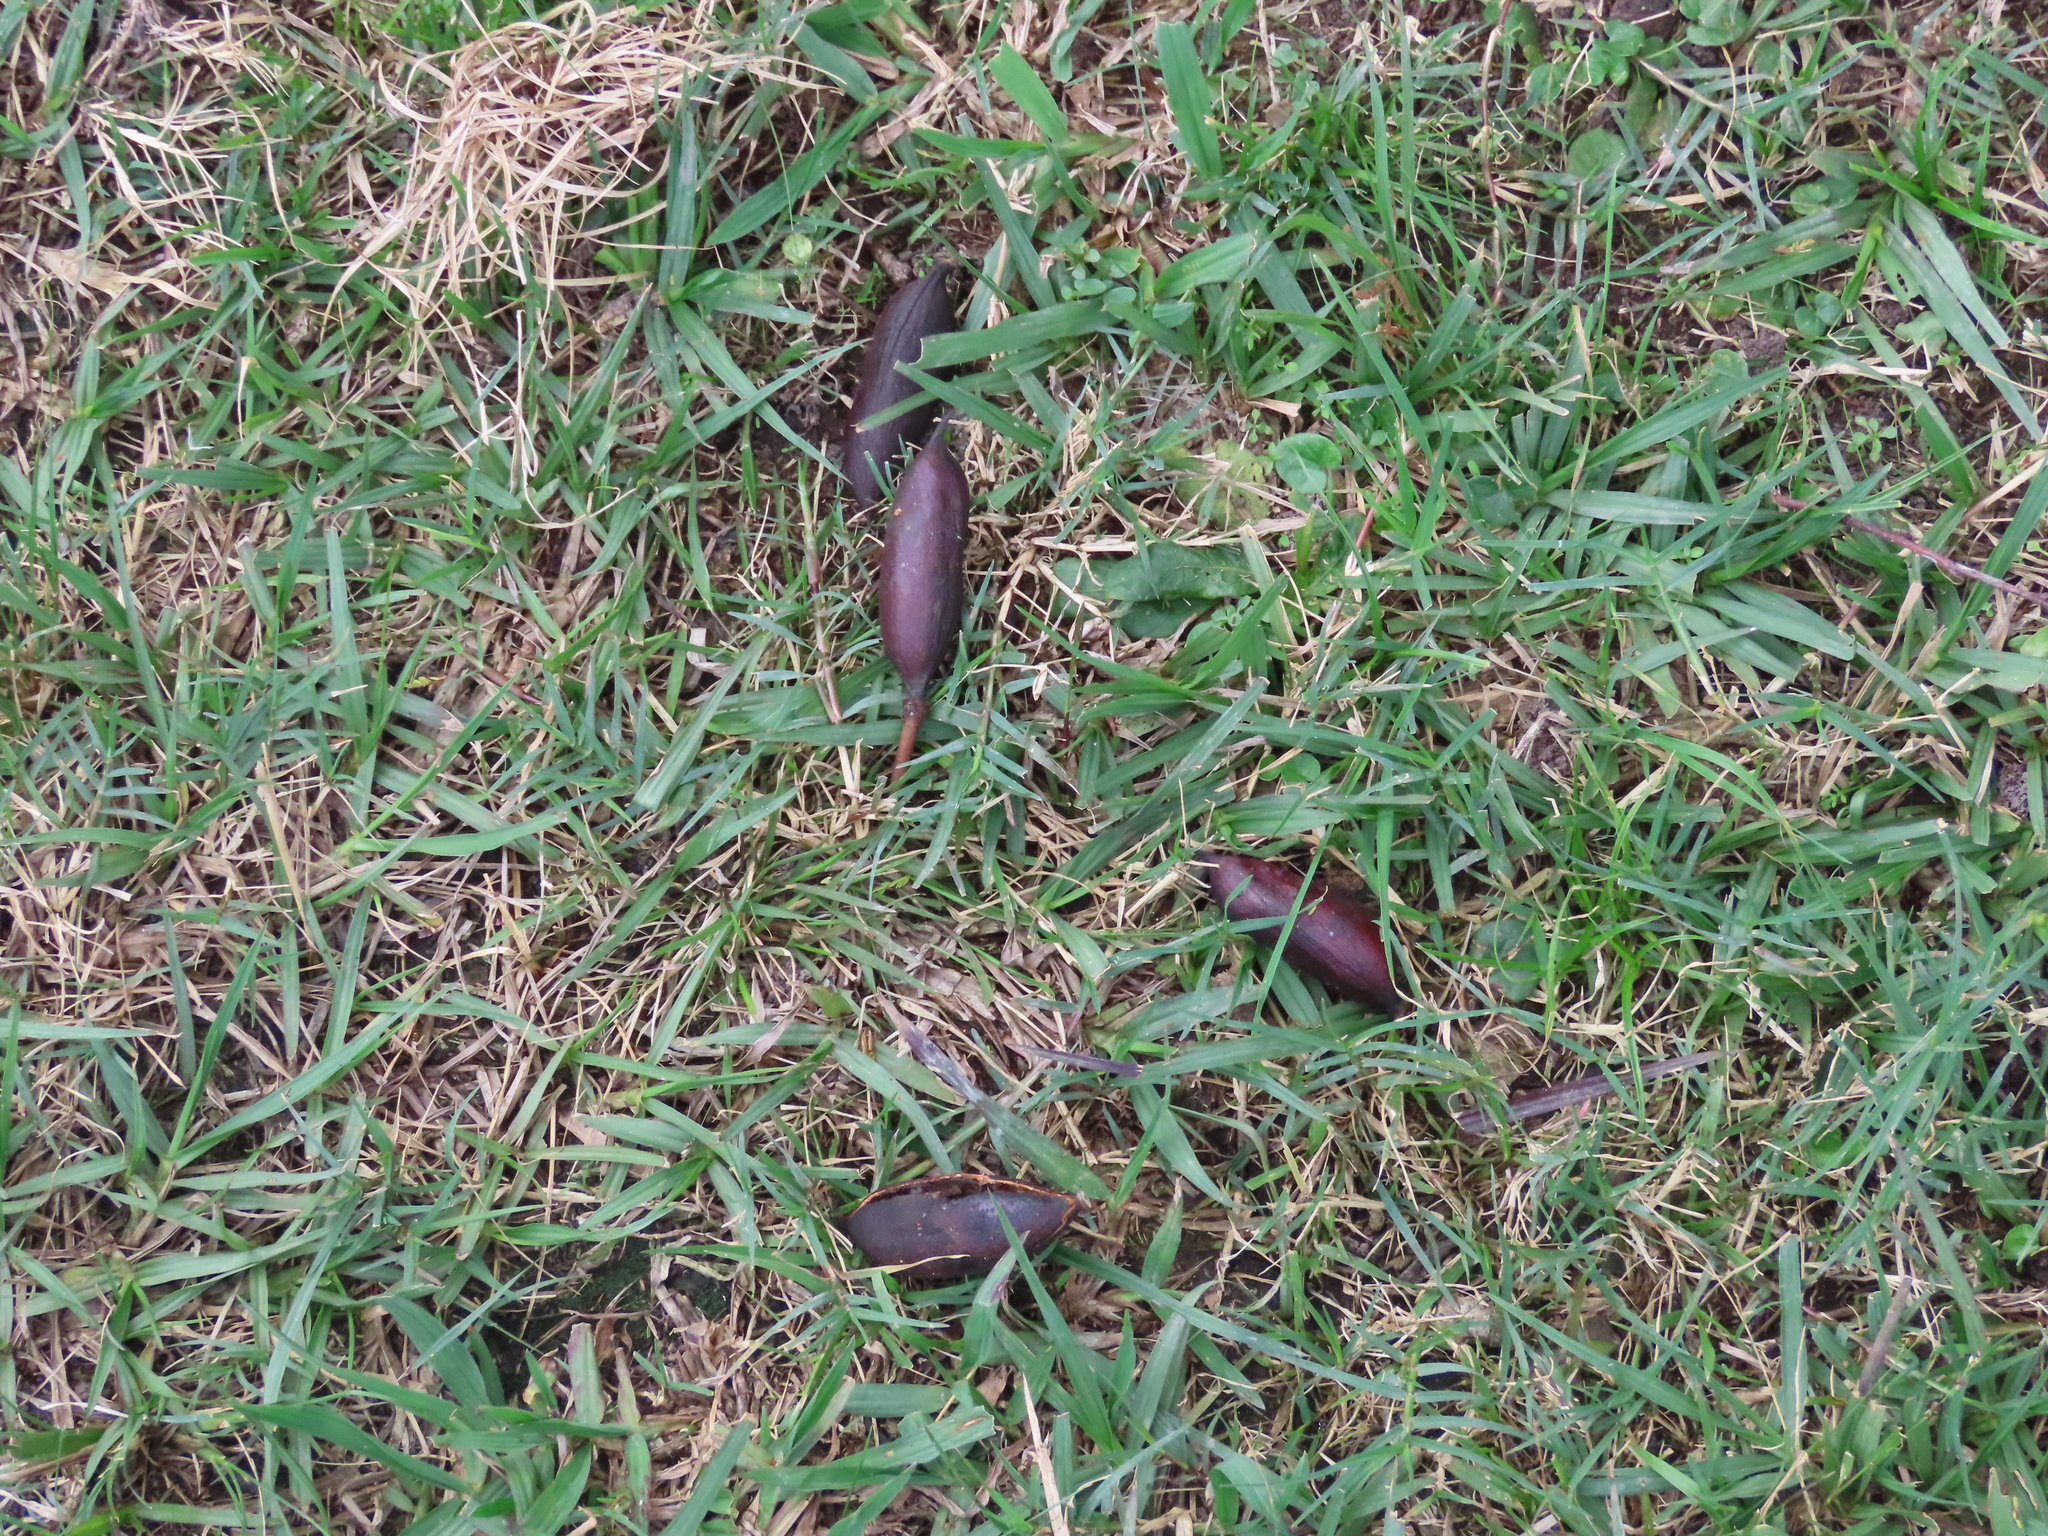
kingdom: Plantae
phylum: Tracheophyta
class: Magnoliopsida
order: Fabales
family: Fabaceae
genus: Vachellia
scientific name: Vachellia caven
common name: Roman cassie
